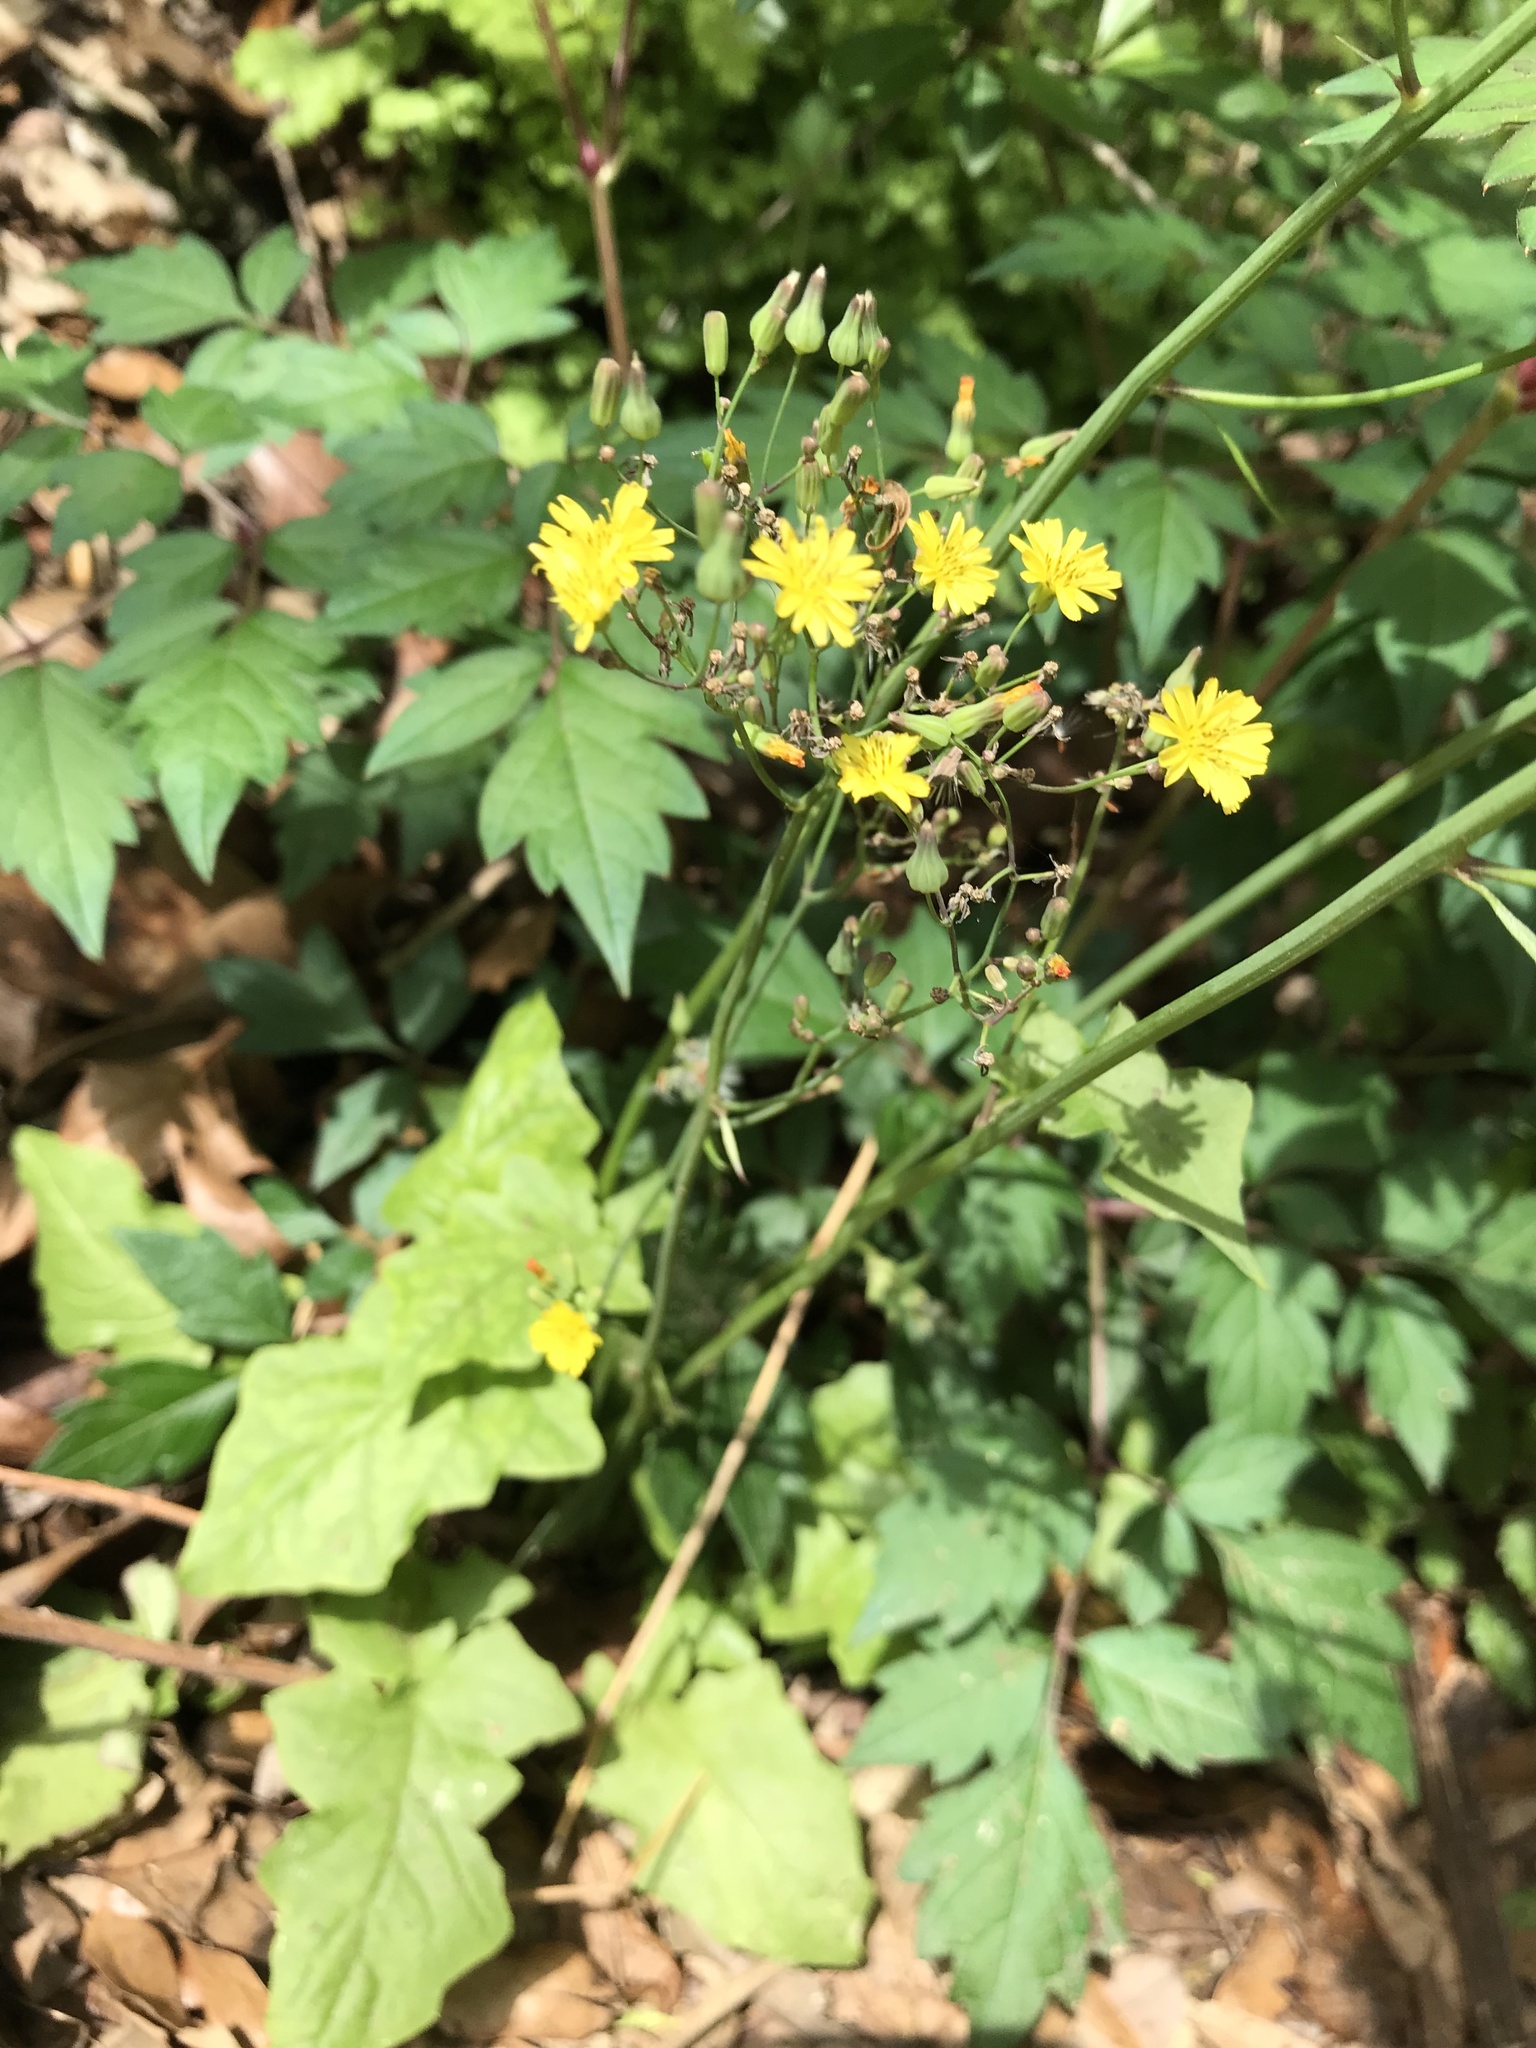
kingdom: Plantae
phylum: Tracheophyta
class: Magnoliopsida
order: Asterales
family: Asteraceae
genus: Youngia
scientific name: Youngia japonica
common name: Oriental false hawksbeard
